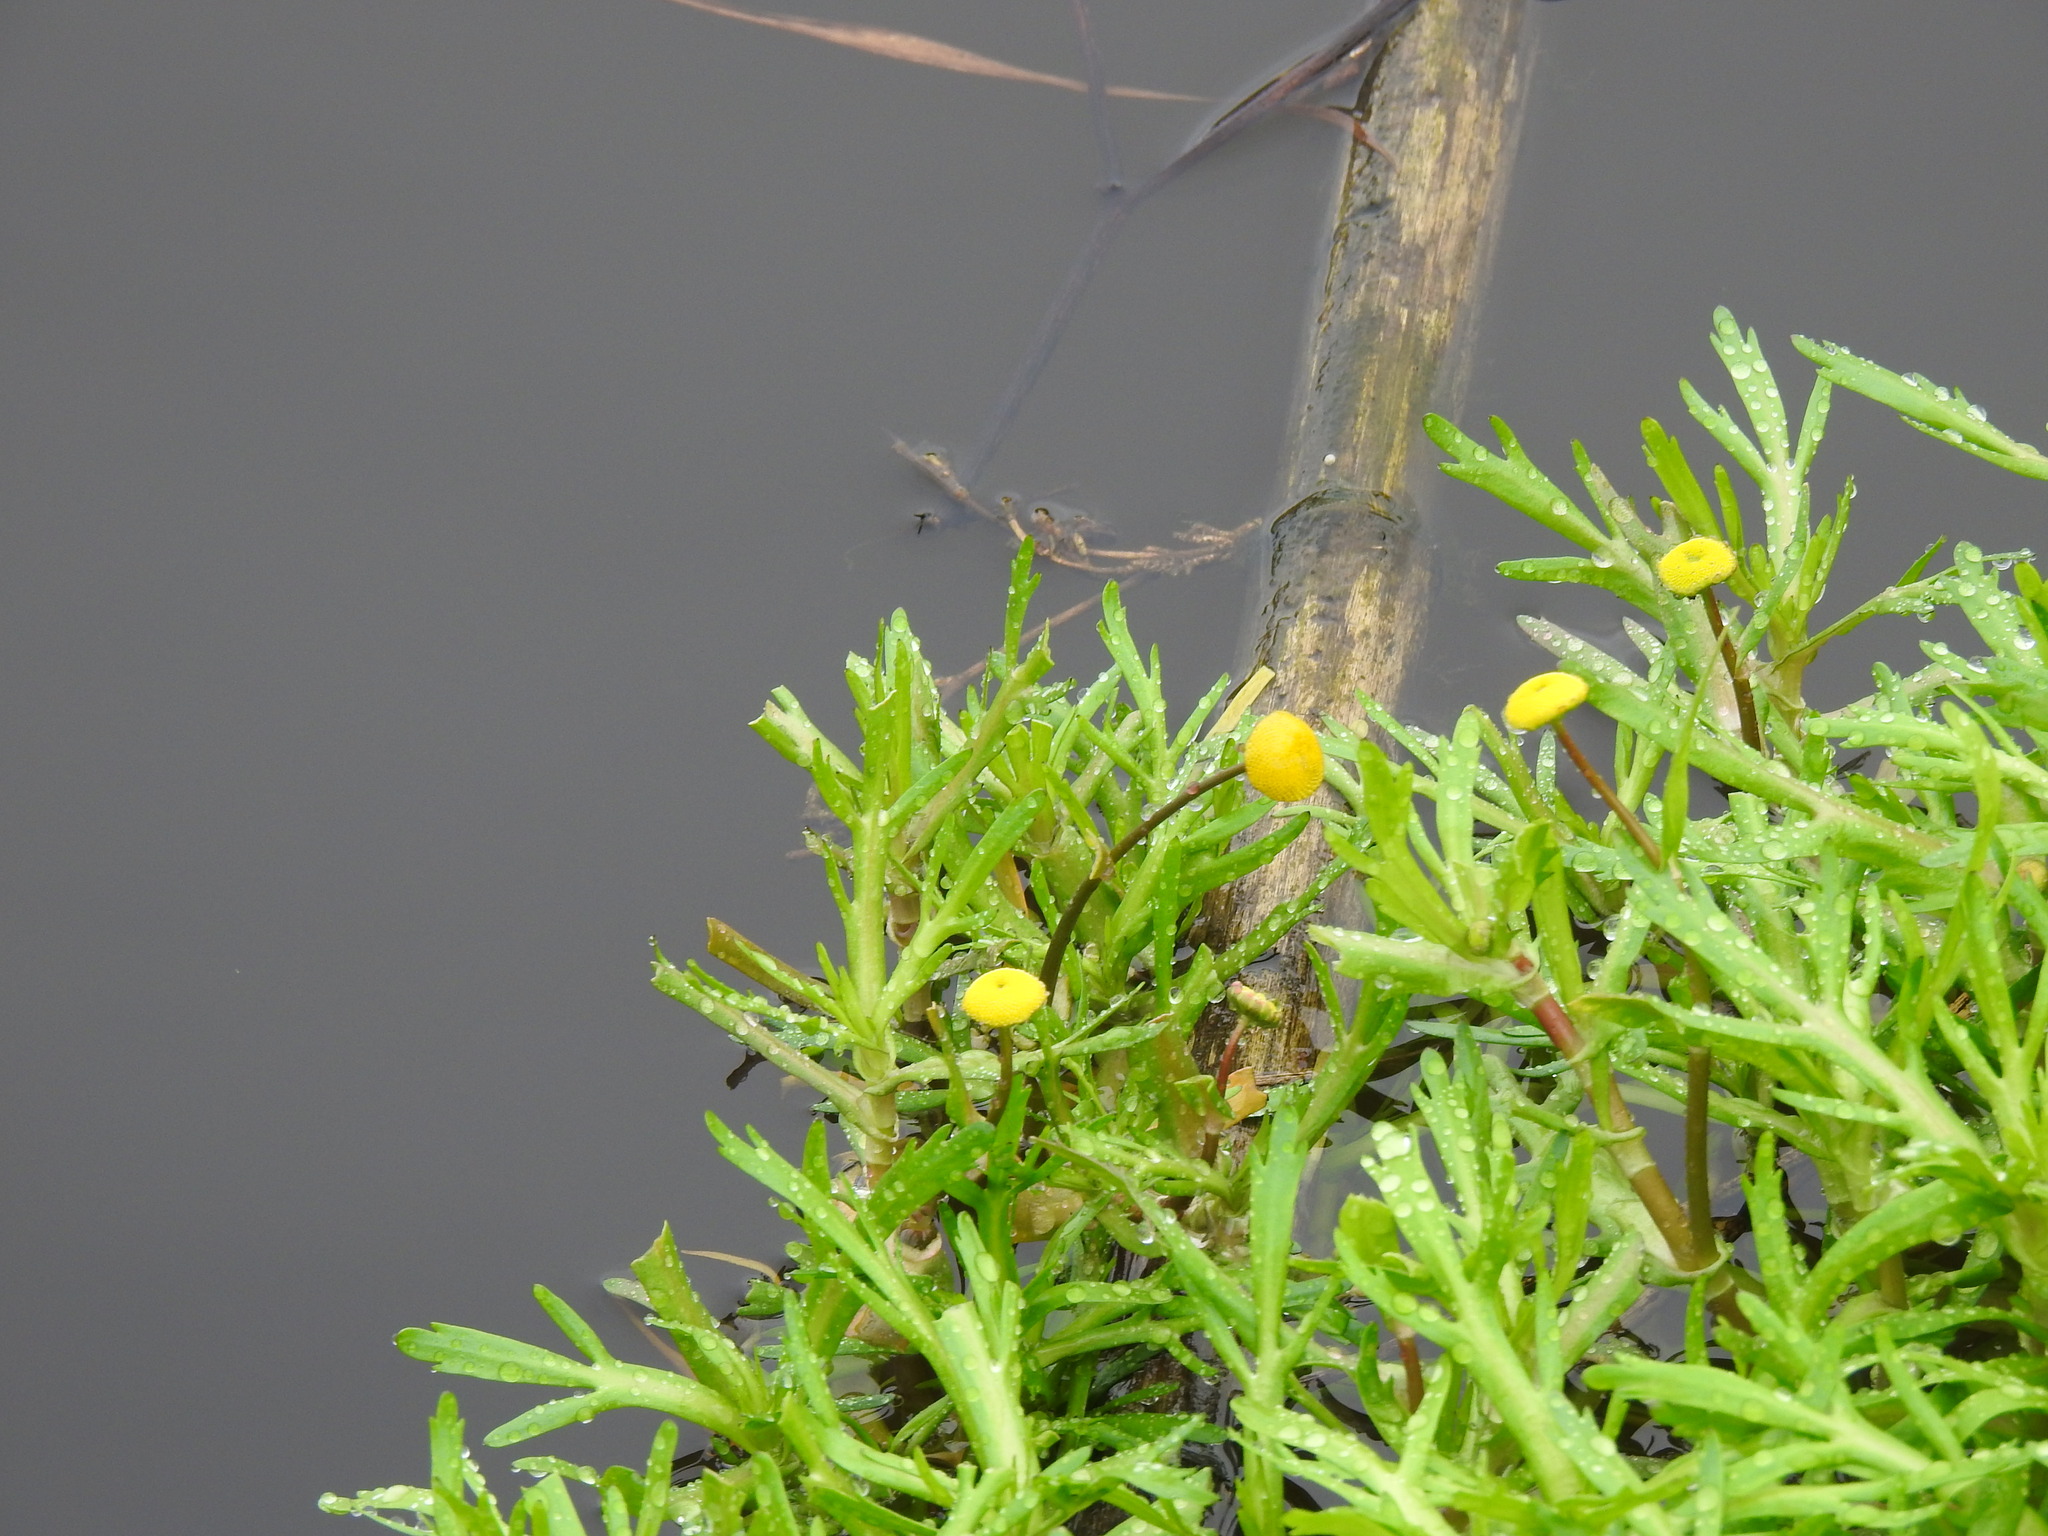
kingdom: Plantae
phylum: Tracheophyta
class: Magnoliopsida
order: Asterales
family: Asteraceae
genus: Cotula
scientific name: Cotula coronopifolia
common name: Buttonweed
